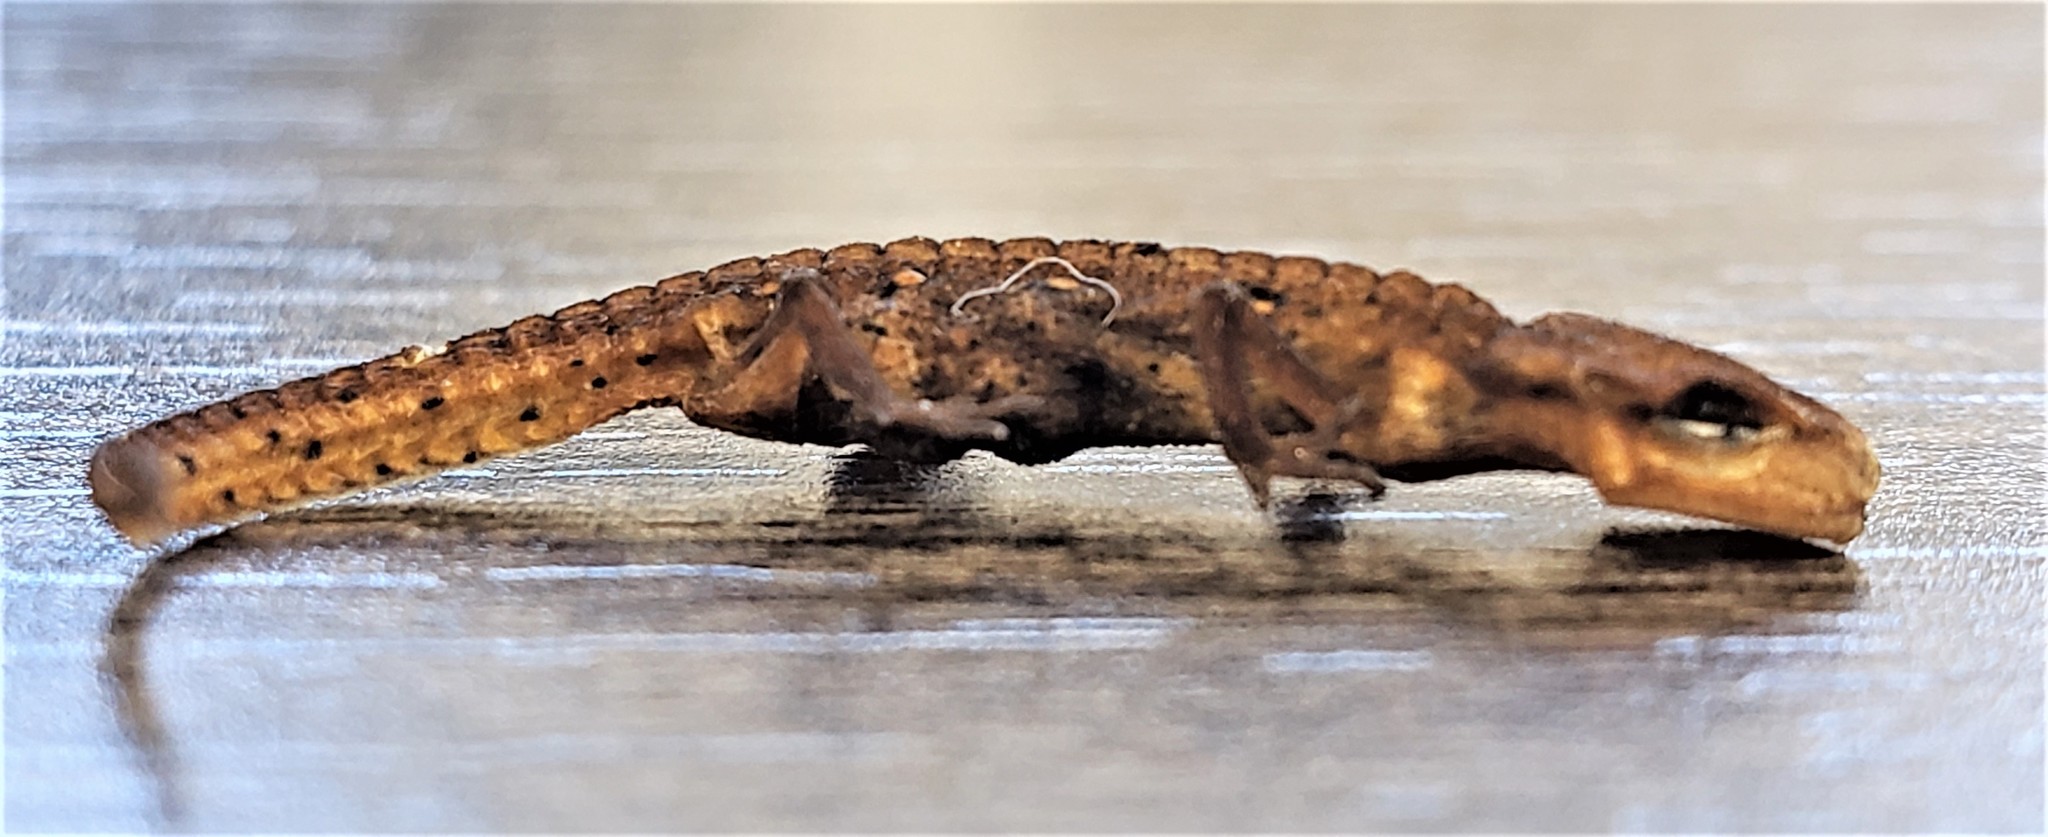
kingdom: Animalia
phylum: Chordata
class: Amphibia
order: Caudata
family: Salamandridae
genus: Notophthalmus
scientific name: Notophthalmus viridescens
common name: Eastern newt
